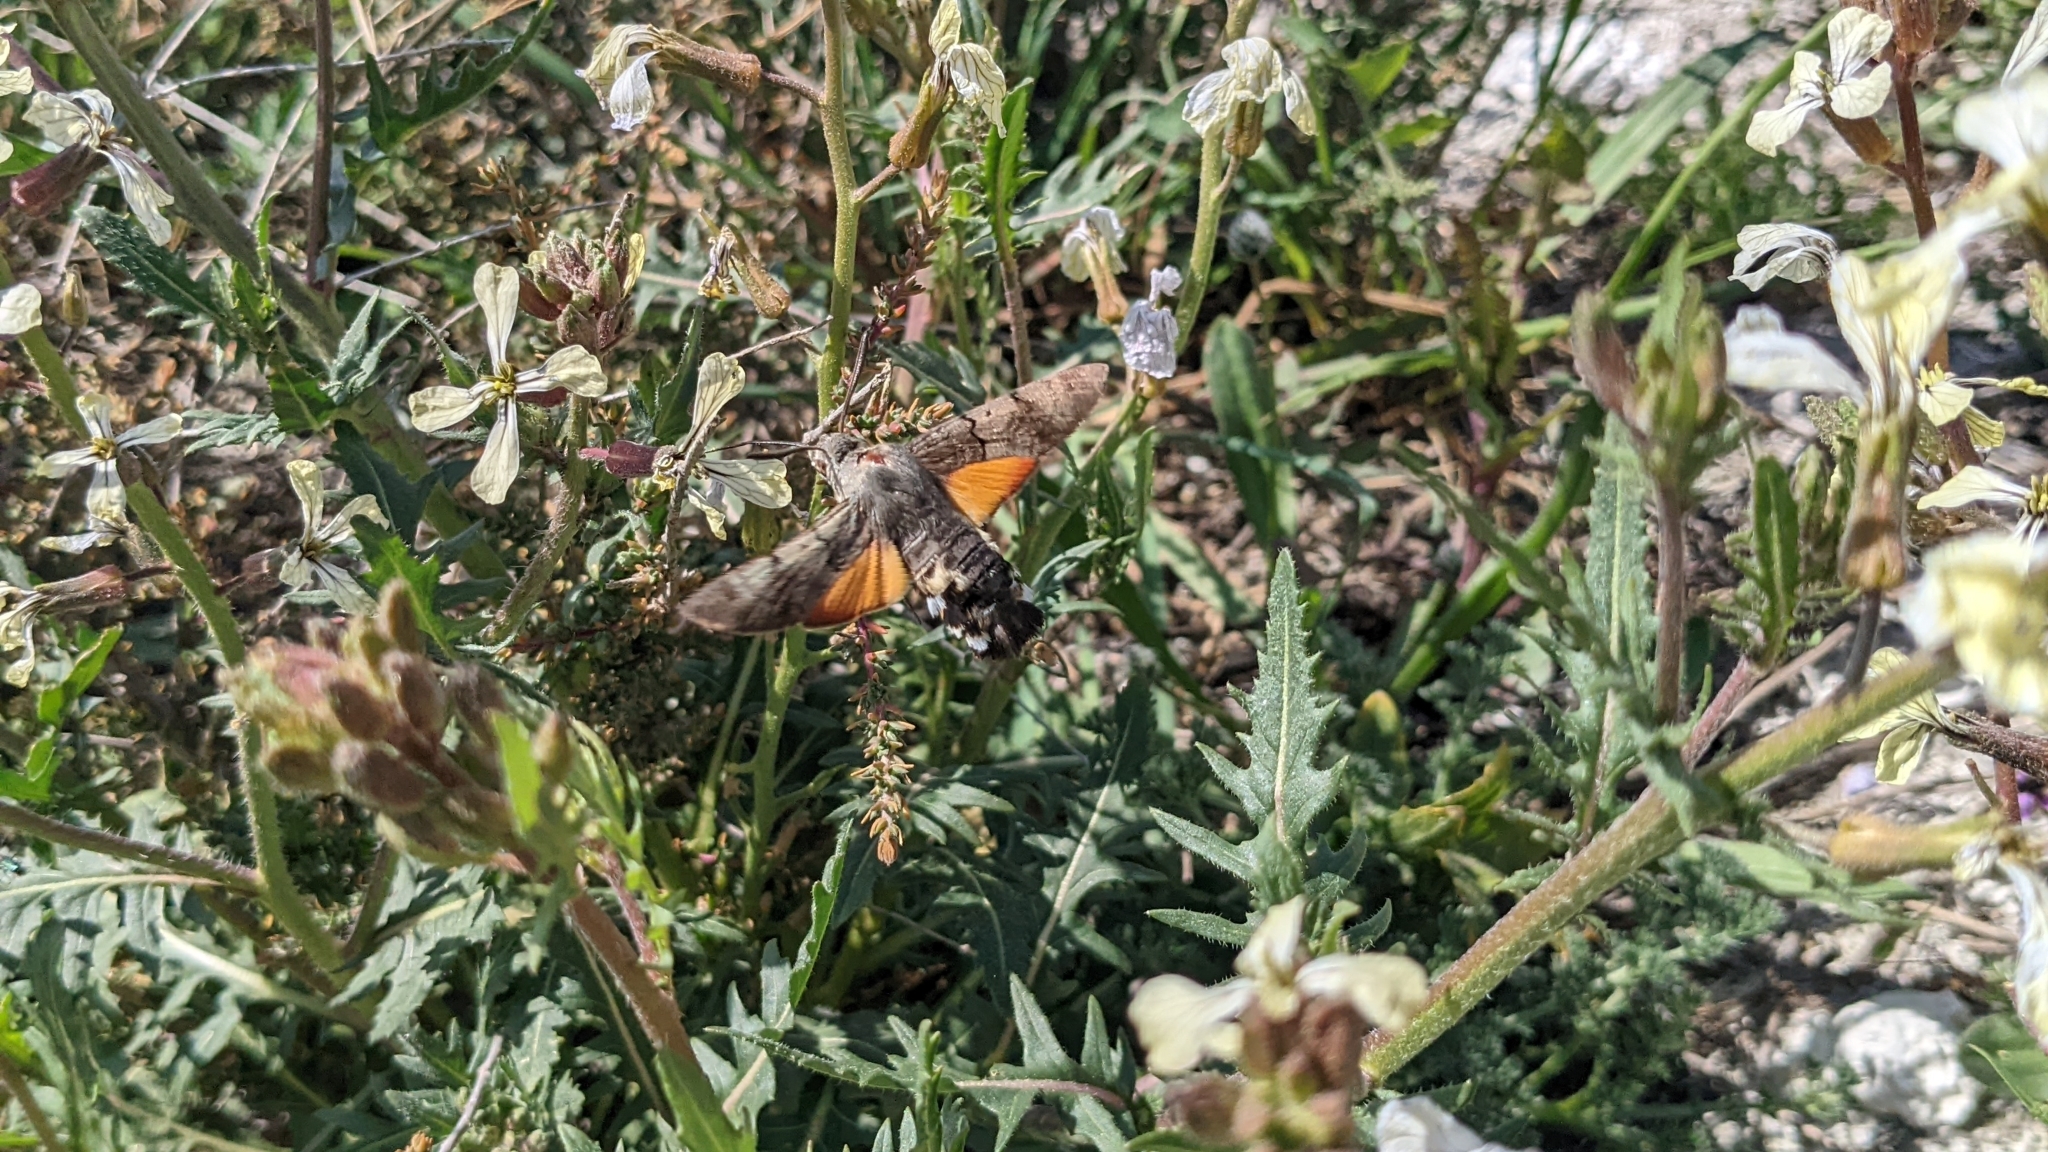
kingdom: Animalia
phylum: Arthropoda
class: Insecta
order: Lepidoptera
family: Sphingidae
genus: Macroglossum
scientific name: Macroglossum stellatarum
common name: Humming-bird hawk-moth
